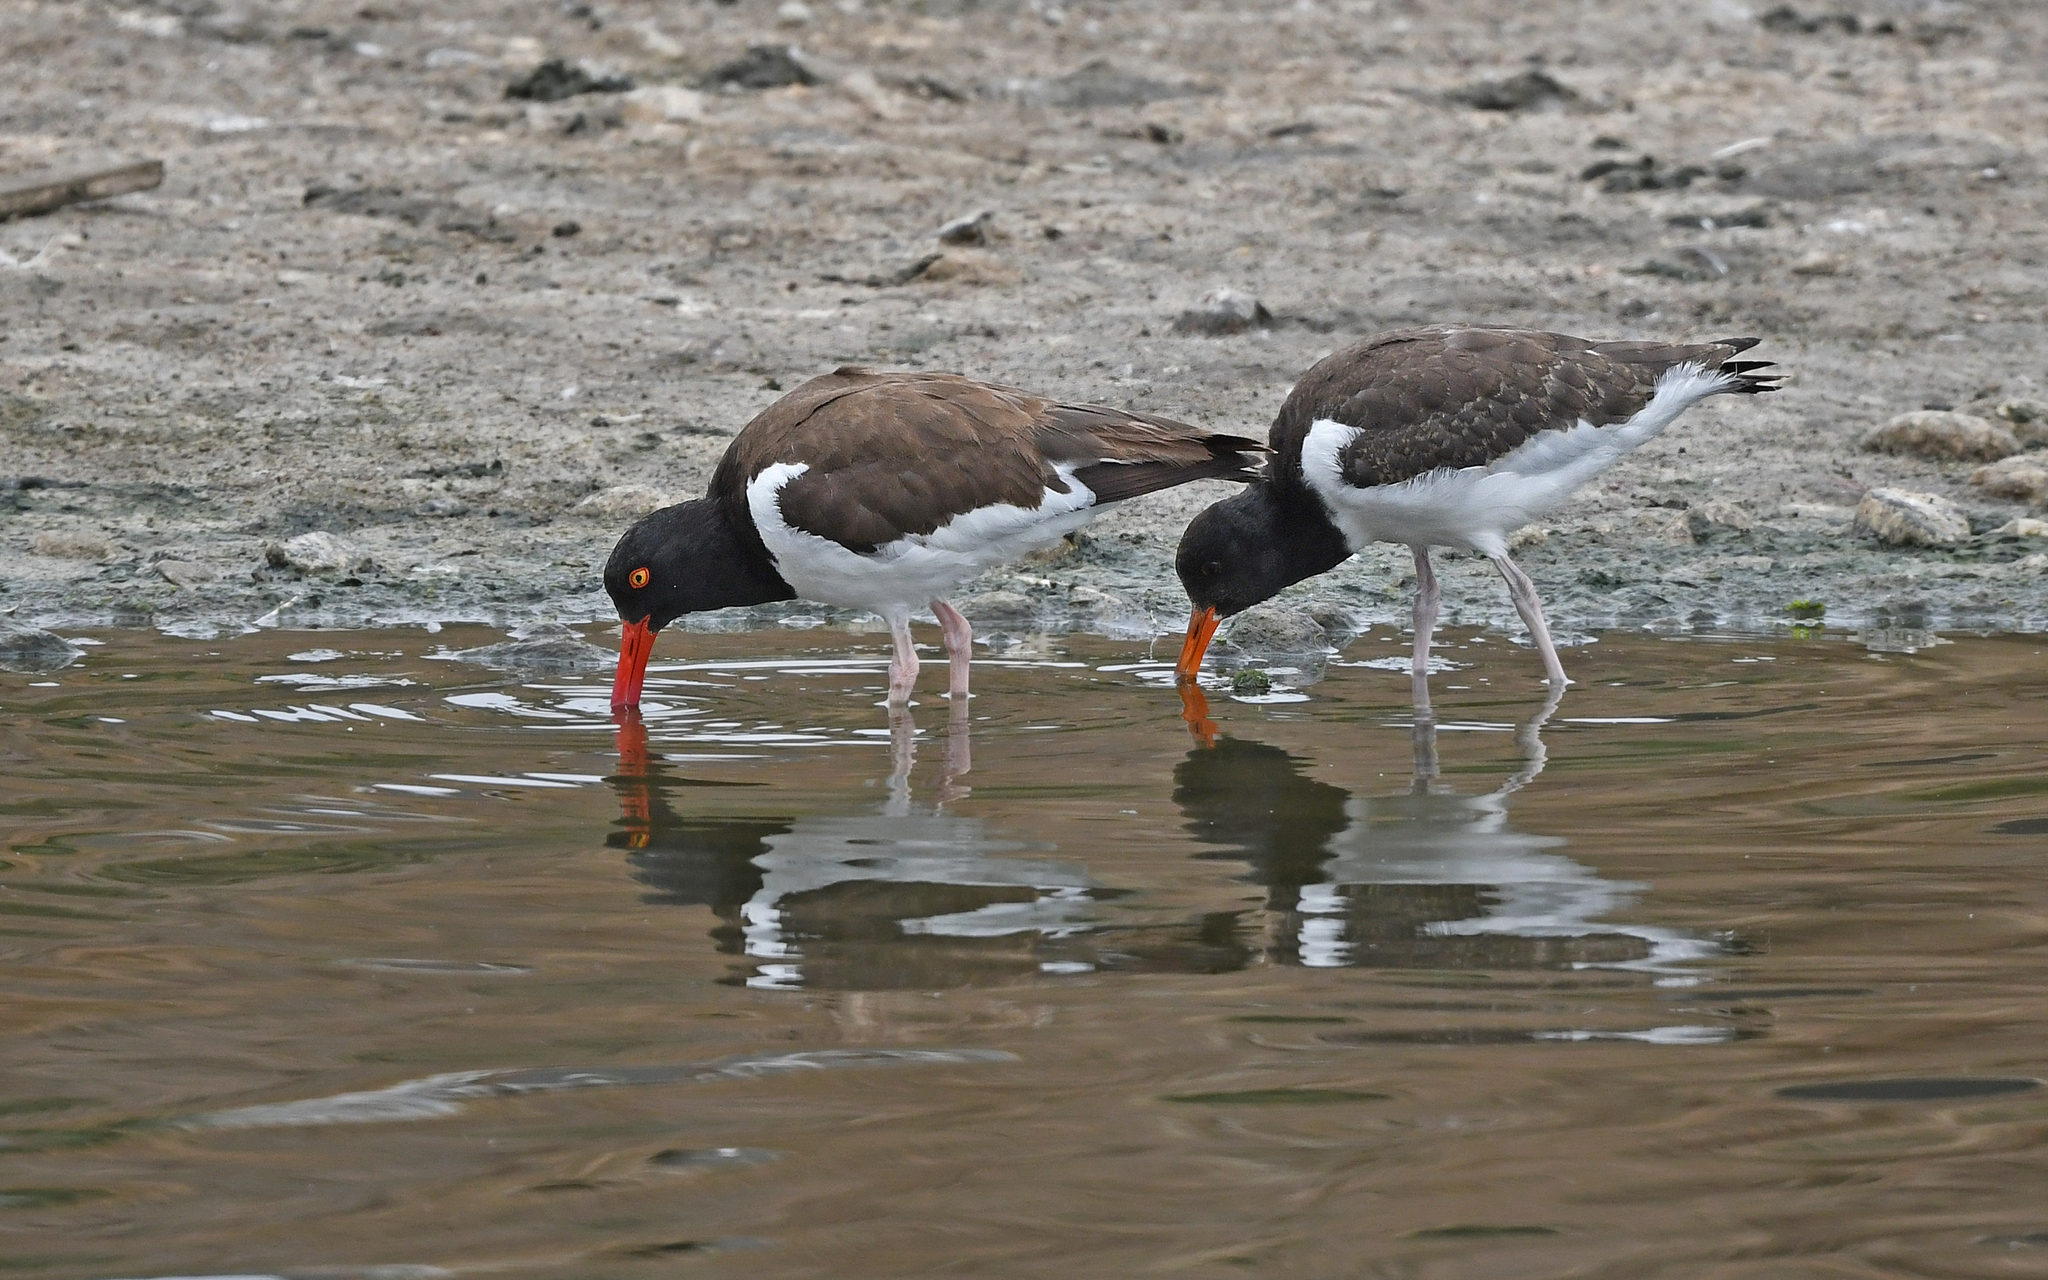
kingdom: Animalia
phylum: Chordata
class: Aves
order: Charadriiformes
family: Haematopodidae
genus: Haematopus
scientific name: Haematopus palliatus
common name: American oystercatcher
